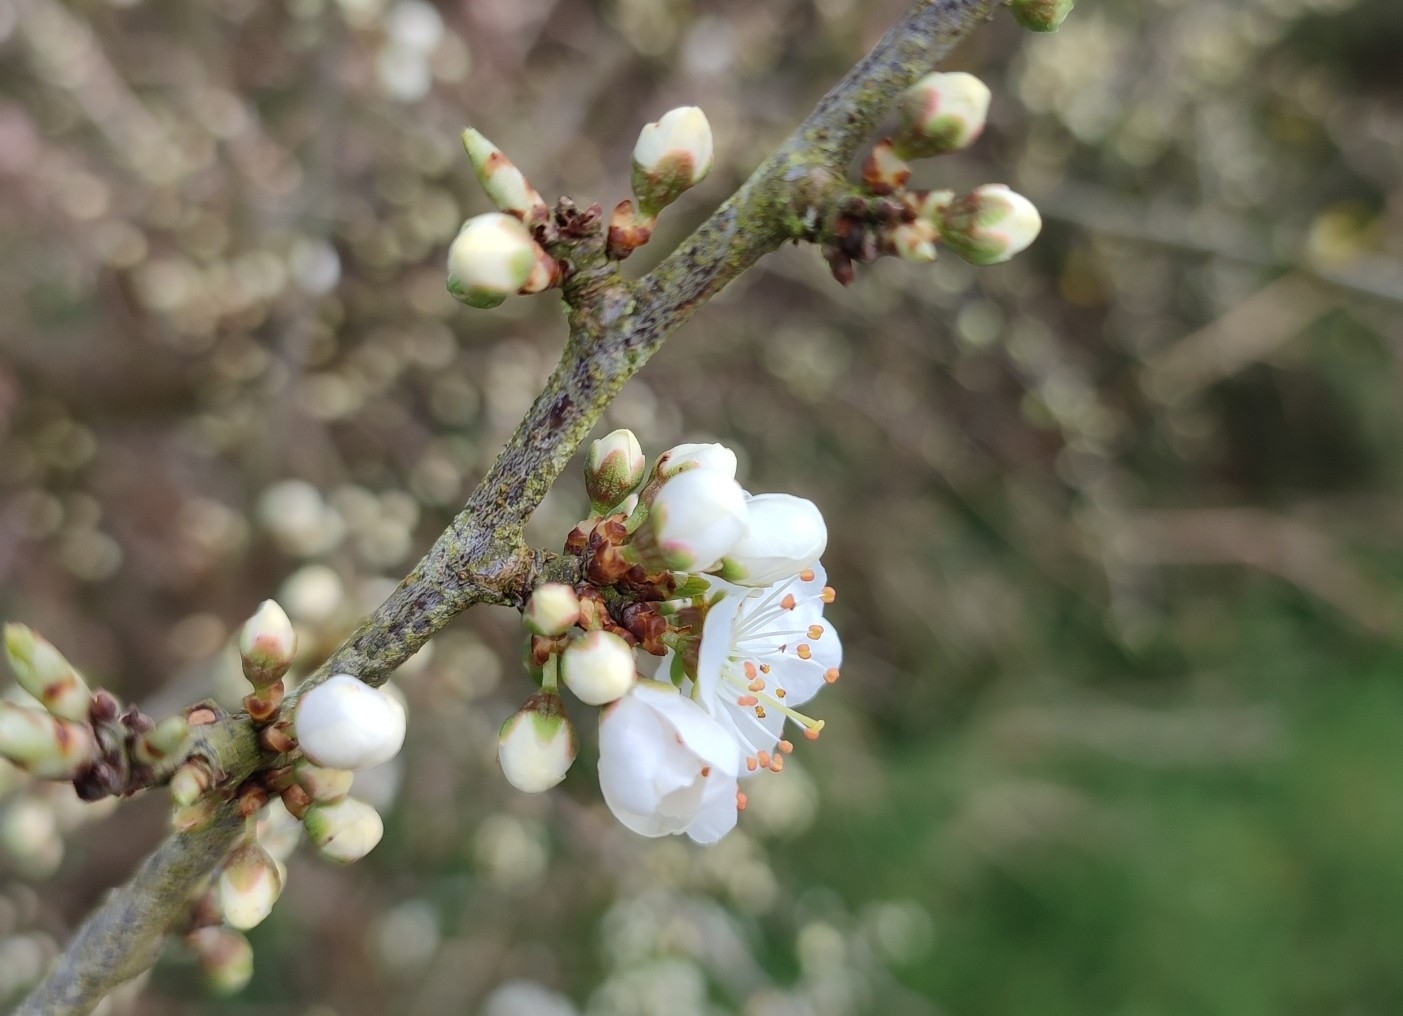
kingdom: Plantae
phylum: Tracheophyta
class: Magnoliopsida
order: Rosales
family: Rosaceae
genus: Prunus
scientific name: Prunus spinosa
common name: Blackthorn
